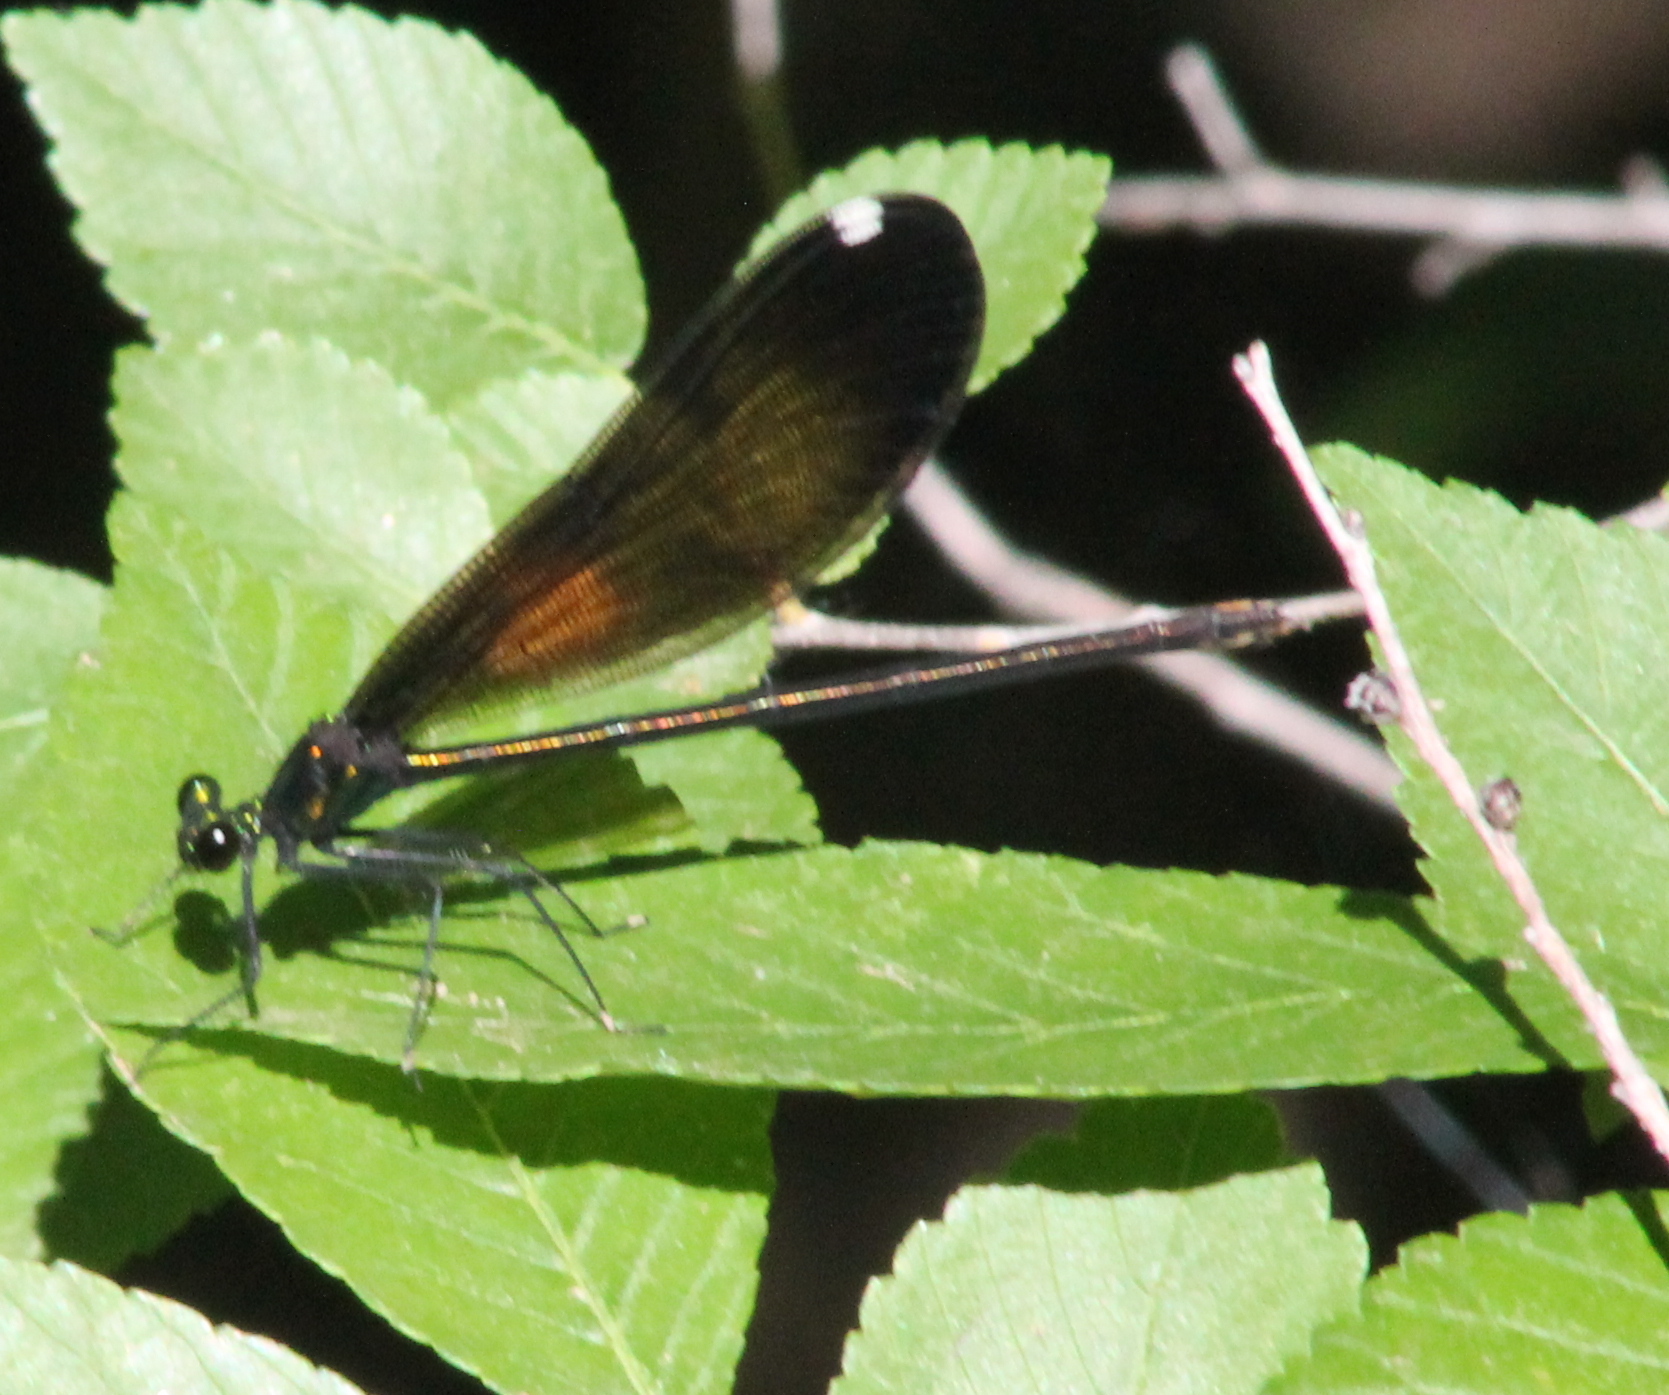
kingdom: Animalia
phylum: Arthropoda
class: Insecta
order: Odonata
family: Calopterygidae
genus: Calopteryx
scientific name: Calopteryx maculata
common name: Ebony jewelwing
